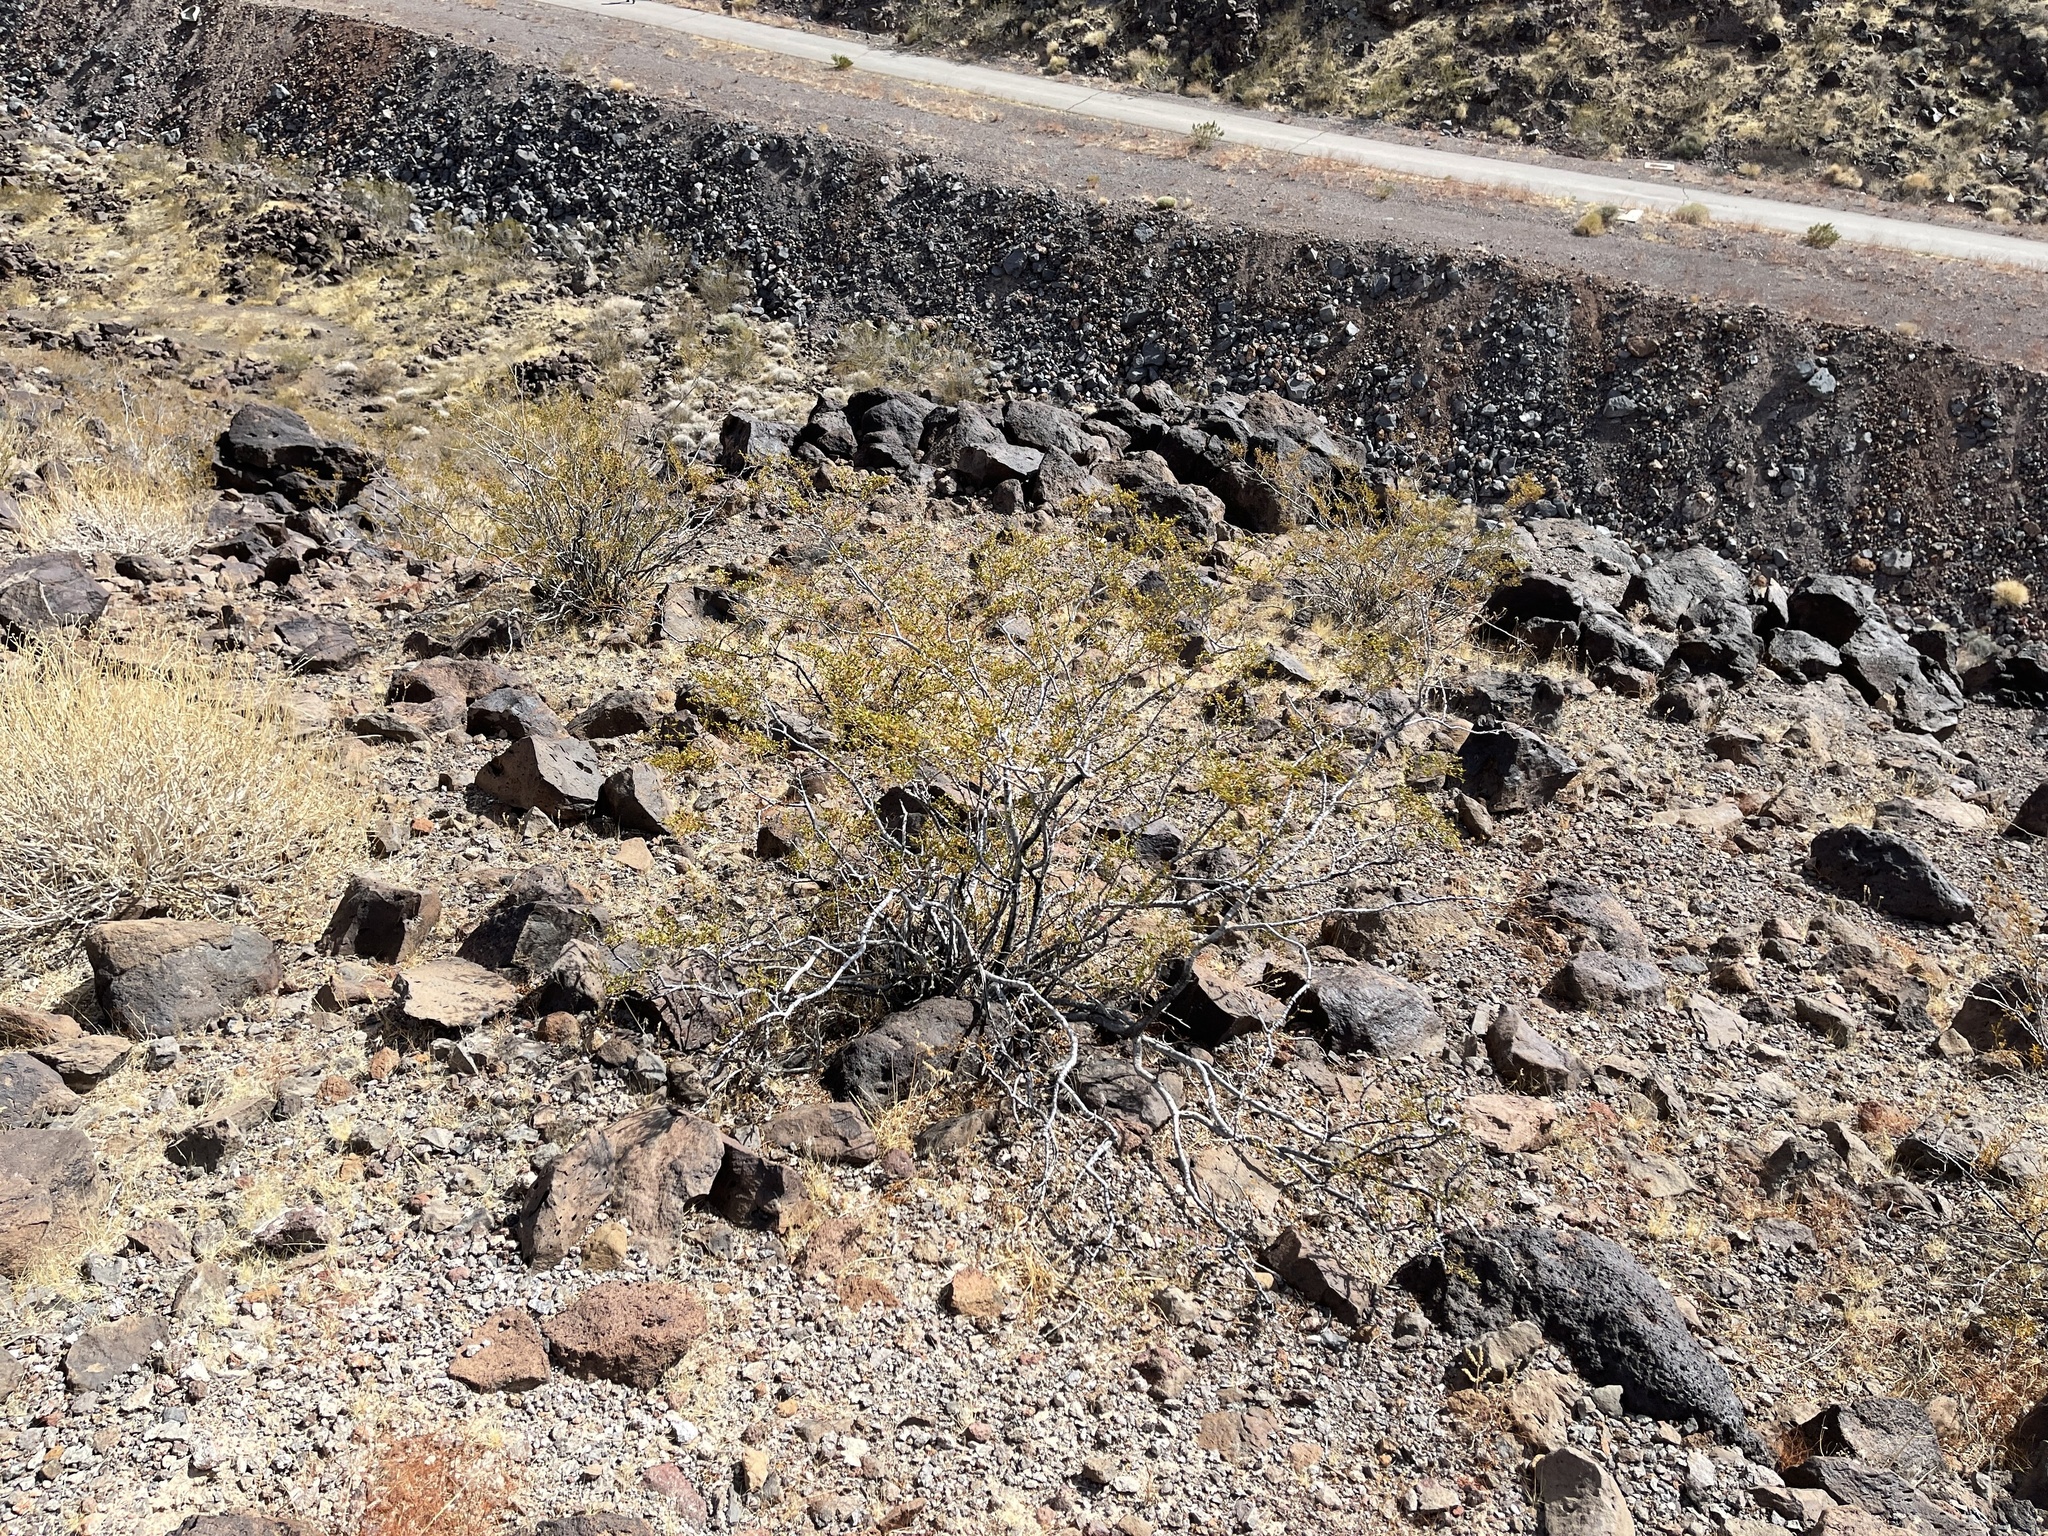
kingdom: Plantae
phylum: Tracheophyta
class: Magnoliopsida
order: Zygophyllales
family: Zygophyllaceae
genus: Larrea
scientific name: Larrea tridentata
